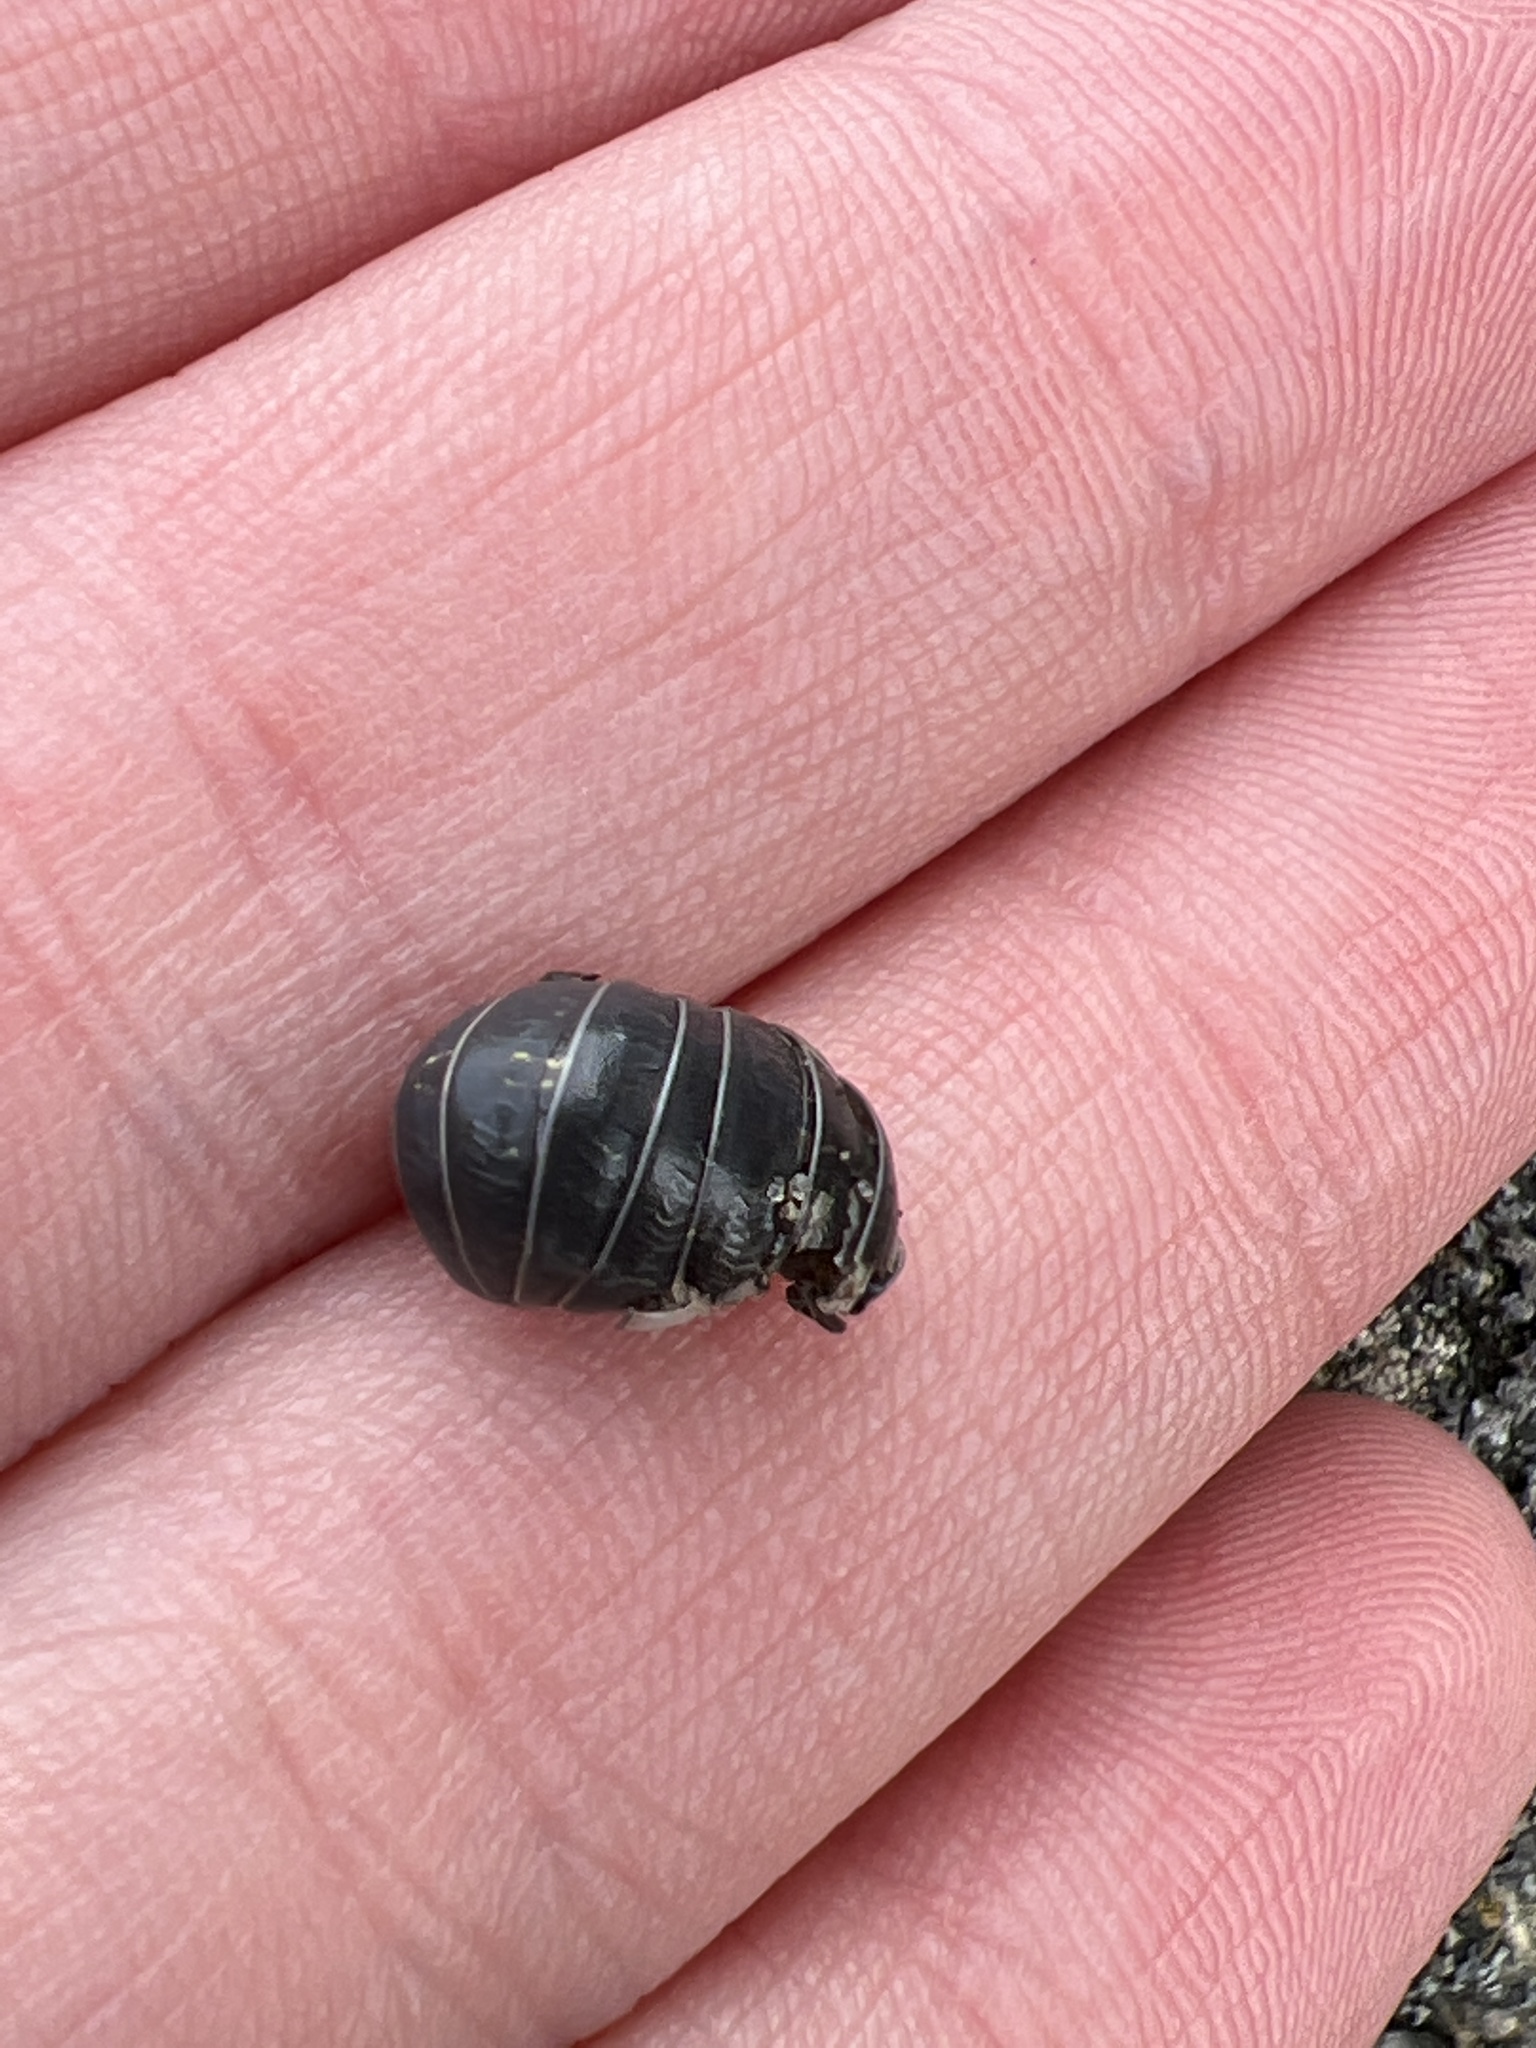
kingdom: Animalia
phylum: Arthropoda
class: Malacostraca
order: Isopoda
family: Armadillidiidae
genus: Armadillidium
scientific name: Armadillidium vulgare
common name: Common pill woodlouse
